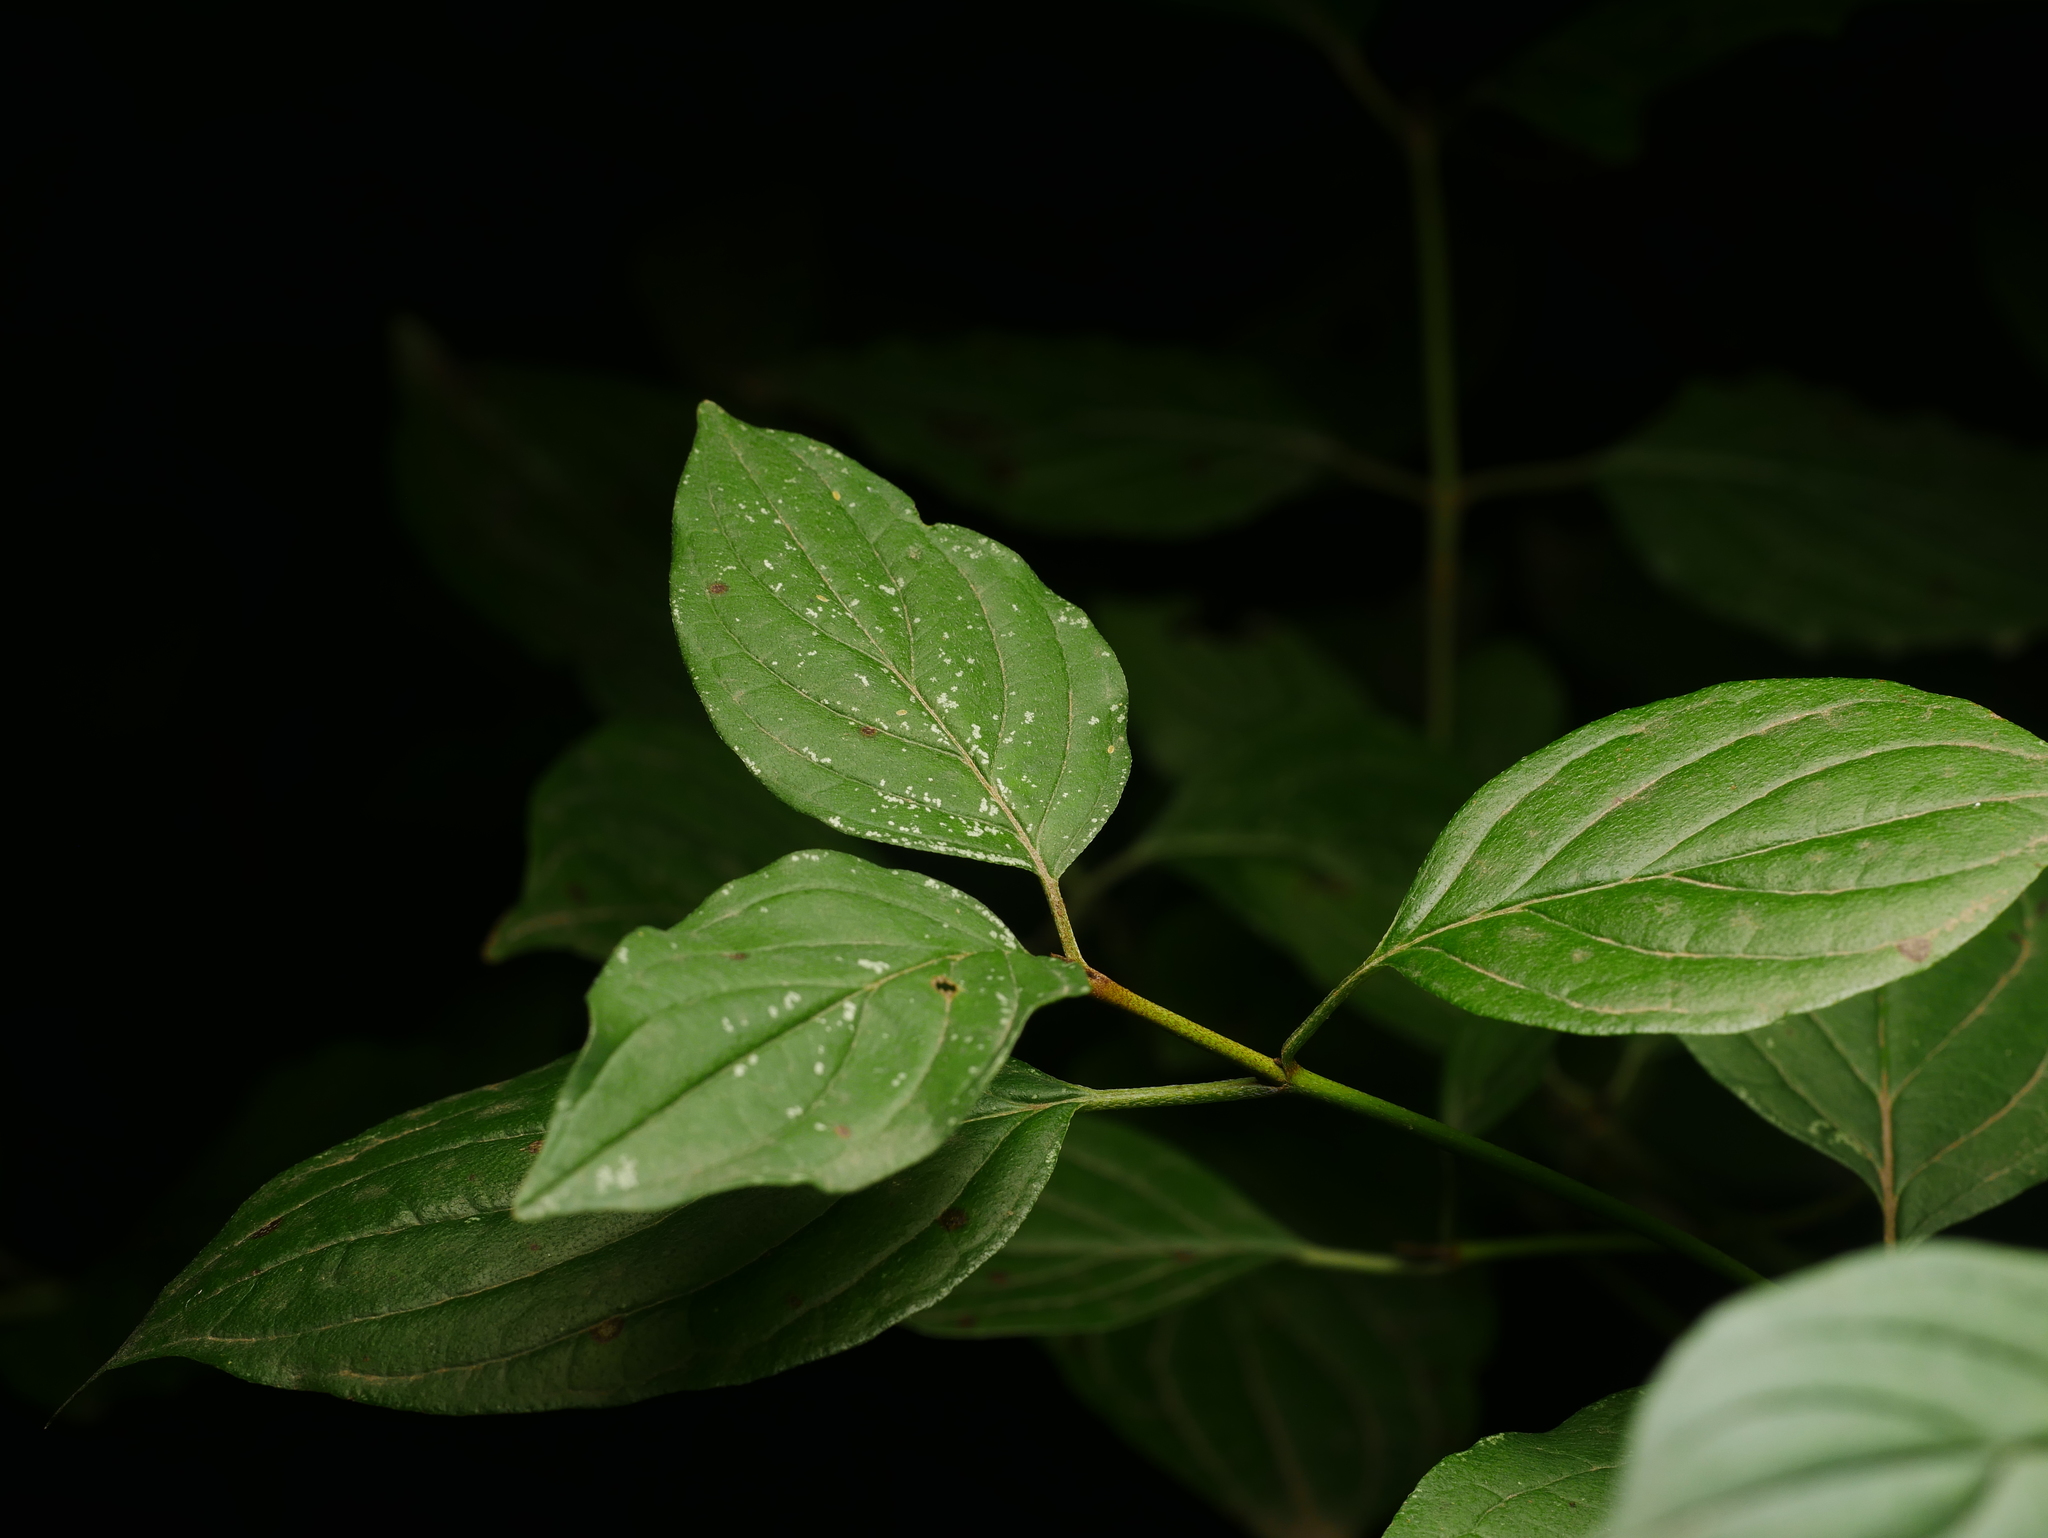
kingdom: Plantae
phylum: Tracheophyta
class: Magnoliopsida
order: Cornales
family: Cornaceae
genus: Cornus
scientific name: Cornus sanguinea
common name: Dogwood
